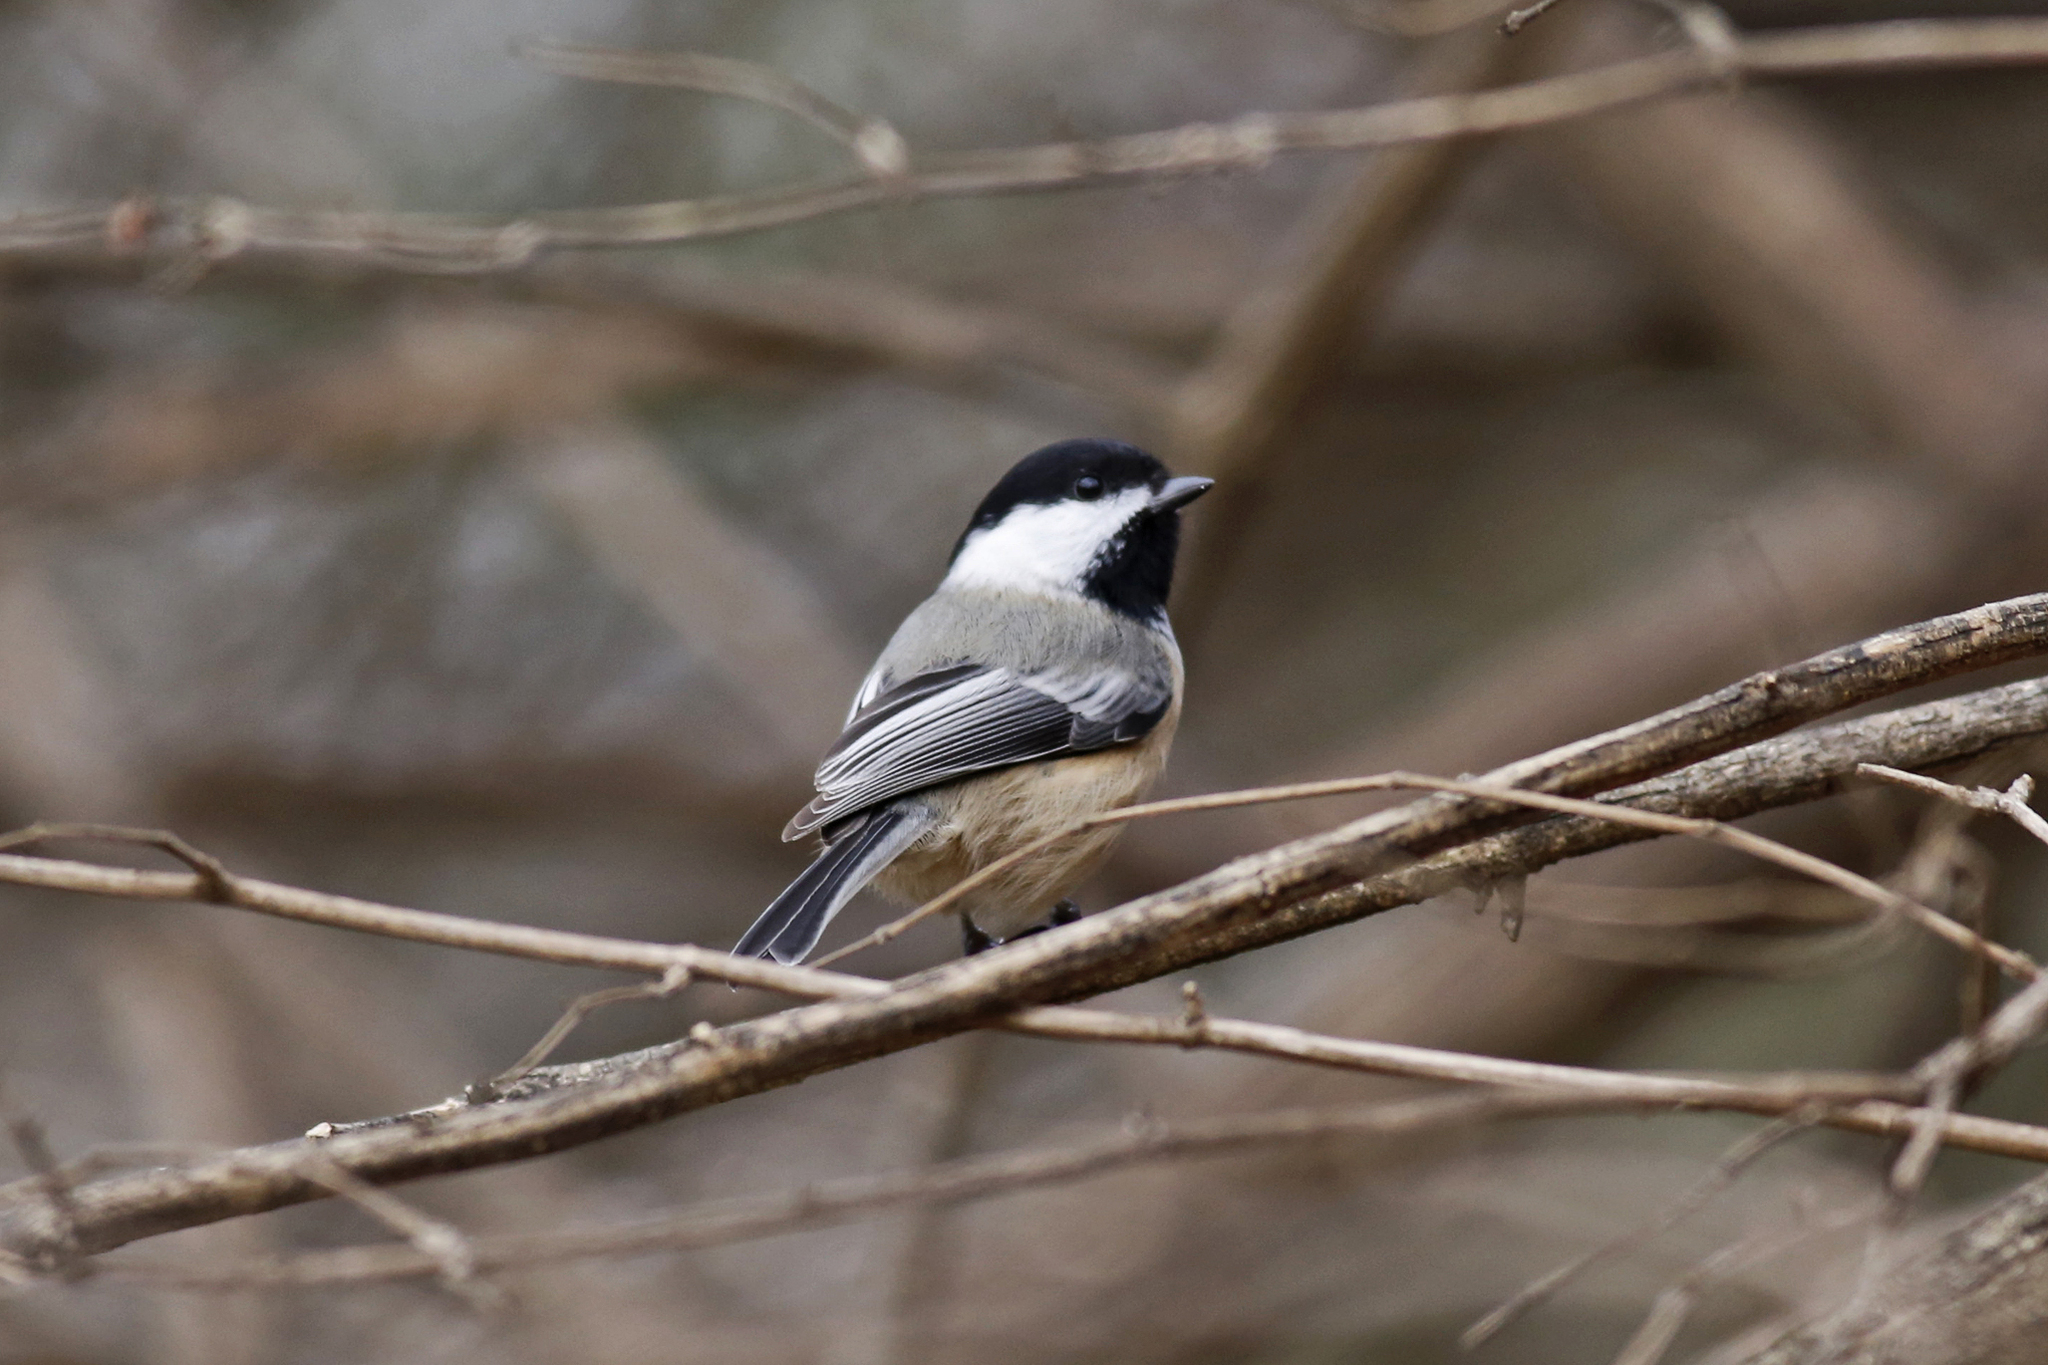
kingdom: Animalia
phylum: Chordata
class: Aves
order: Passeriformes
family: Paridae
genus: Poecile
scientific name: Poecile atricapillus
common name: Black-capped chickadee
